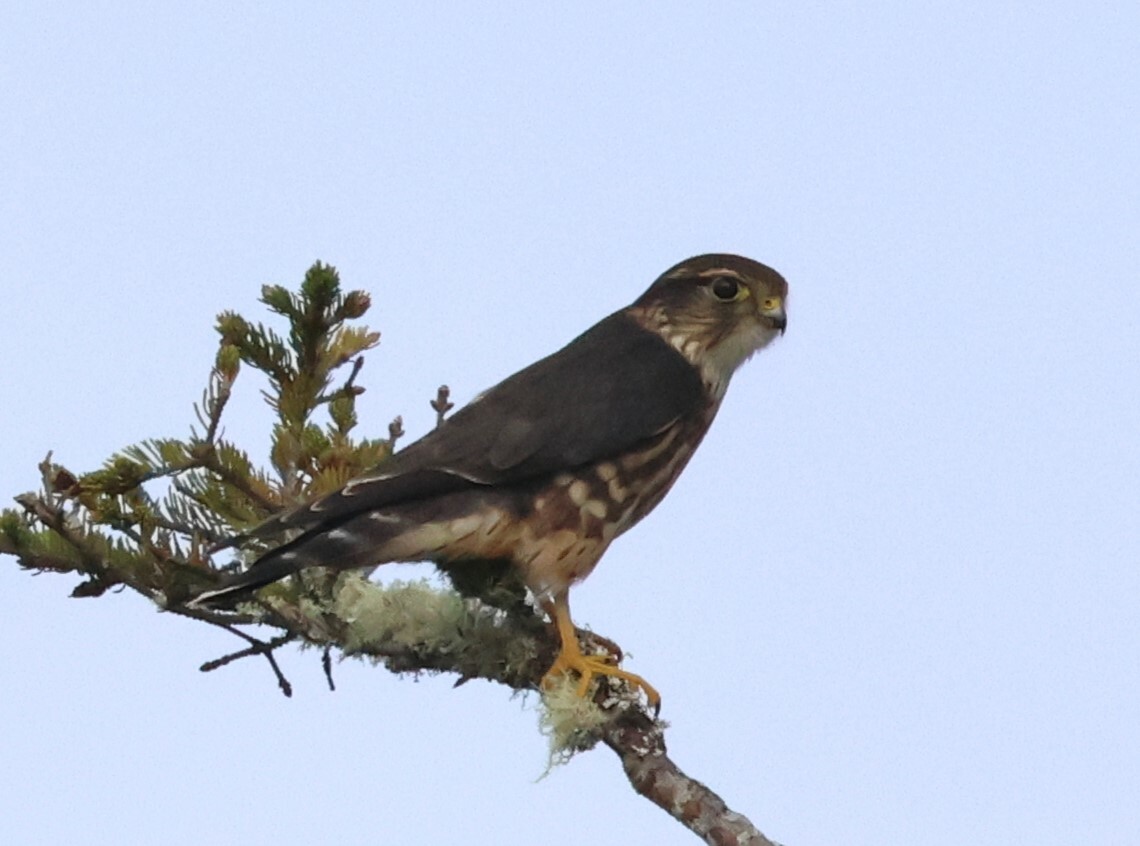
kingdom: Animalia
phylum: Chordata
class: Aves
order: Falconiformes
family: Falconidae
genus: Falco
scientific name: Falco columbarius
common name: Merlin
